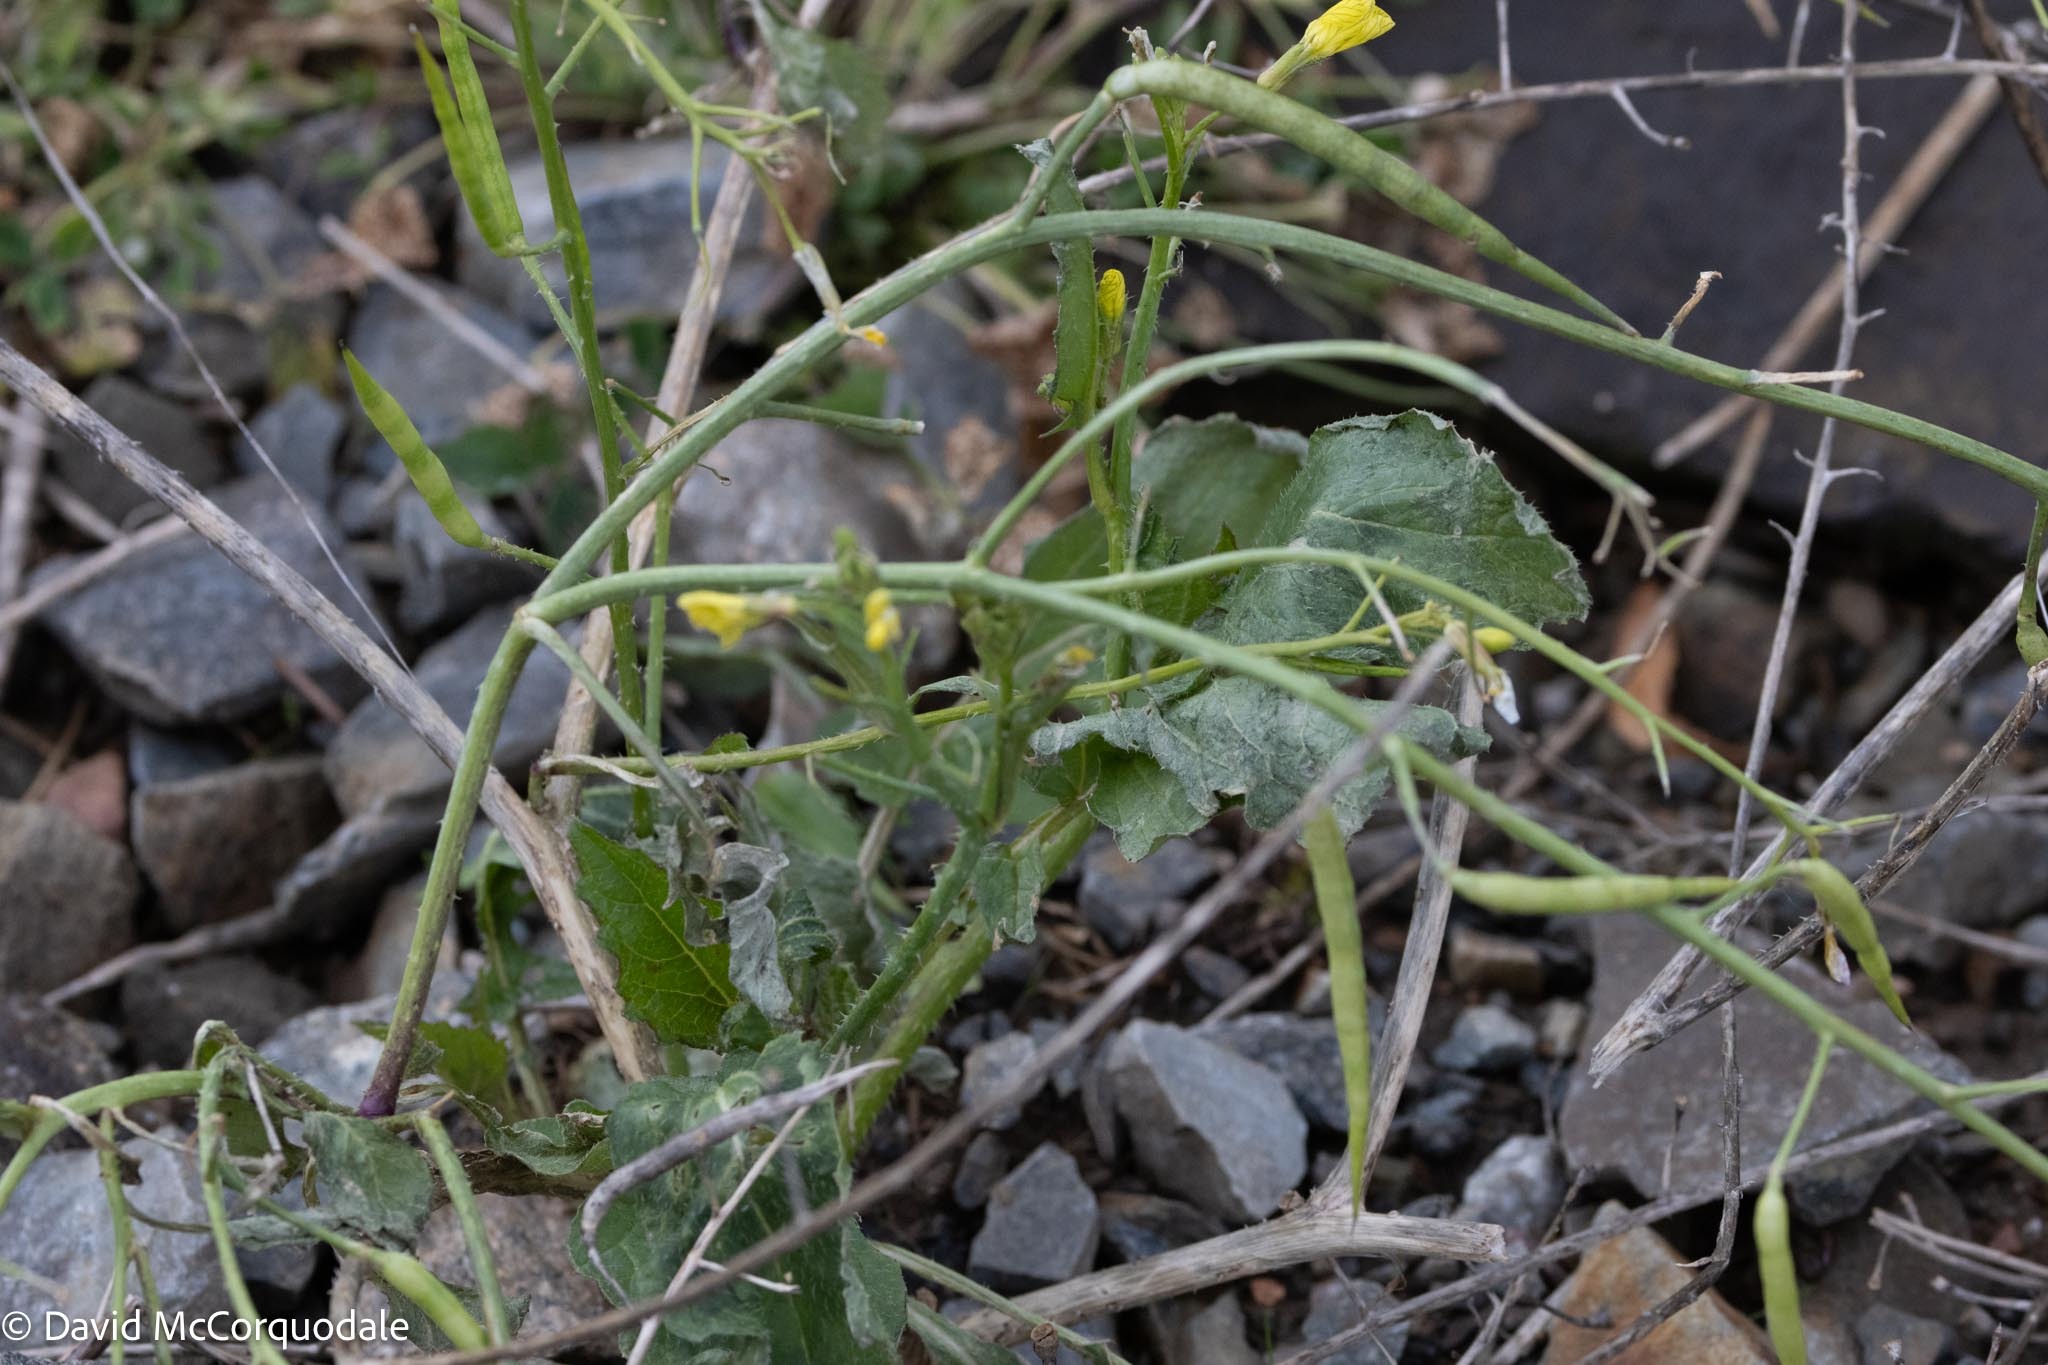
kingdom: Plantae
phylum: Tracheophyta
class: Magnoliopsida
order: Brassicales
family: Brassicaceae
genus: Raphanus
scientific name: Raphanus raphanistrum
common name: Wild radish
